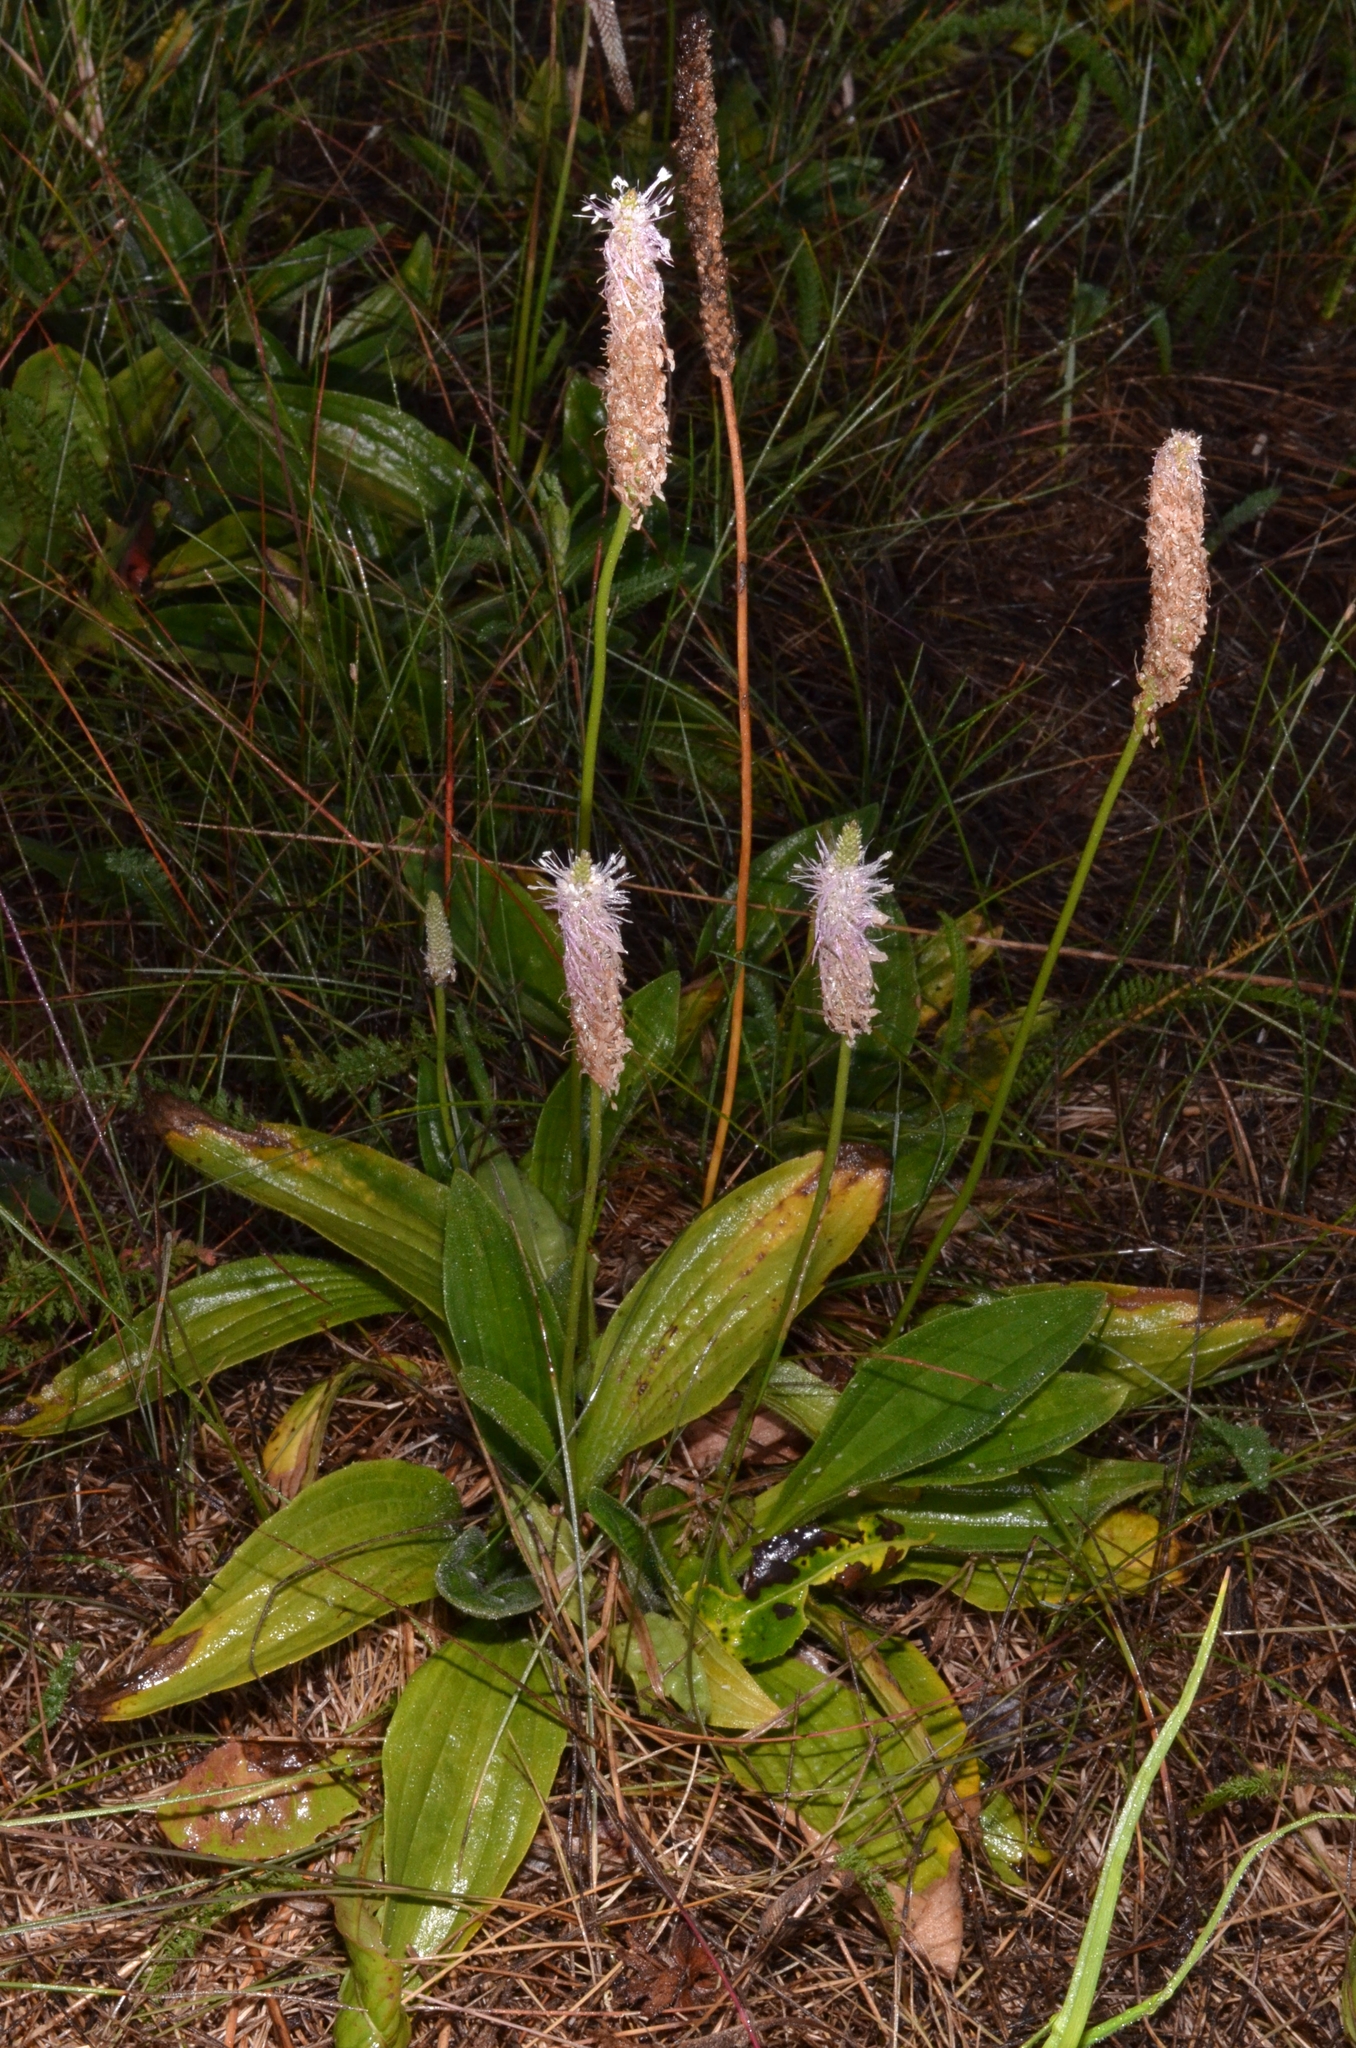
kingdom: Plantae
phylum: Tracheophyta
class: Magnoliopsida
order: Lamiales
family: Plantaginaceae
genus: Plantago
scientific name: Plantago media
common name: Hoary plantain
